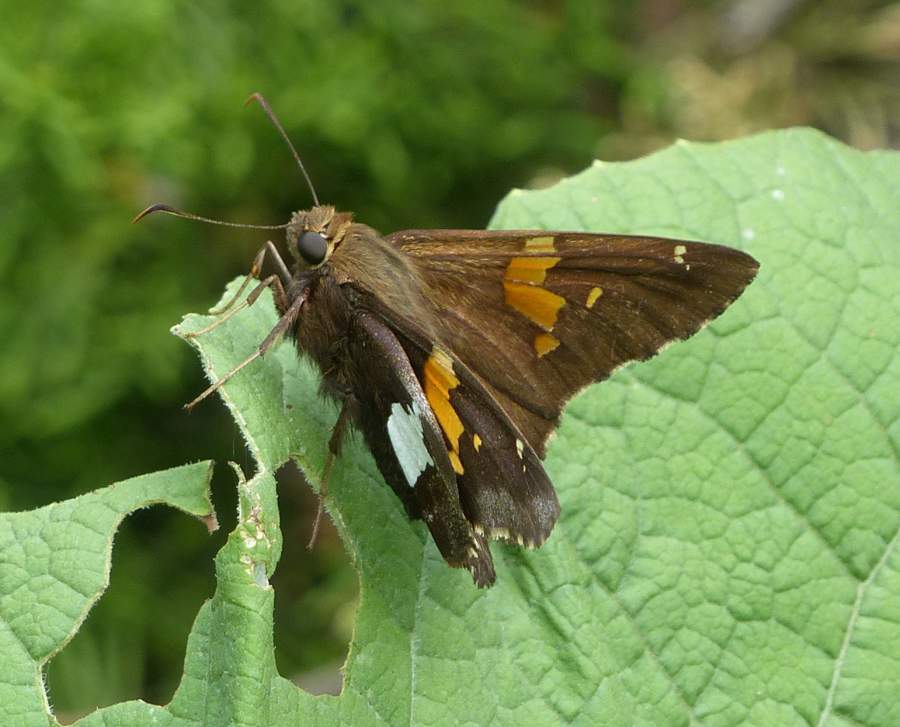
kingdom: Animalia
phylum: Arthropoda
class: Insecta
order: Lepidoptera
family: Hesperiidae
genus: Epargyreus
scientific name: Epargyreus clarus
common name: Silver-spotted skipper
